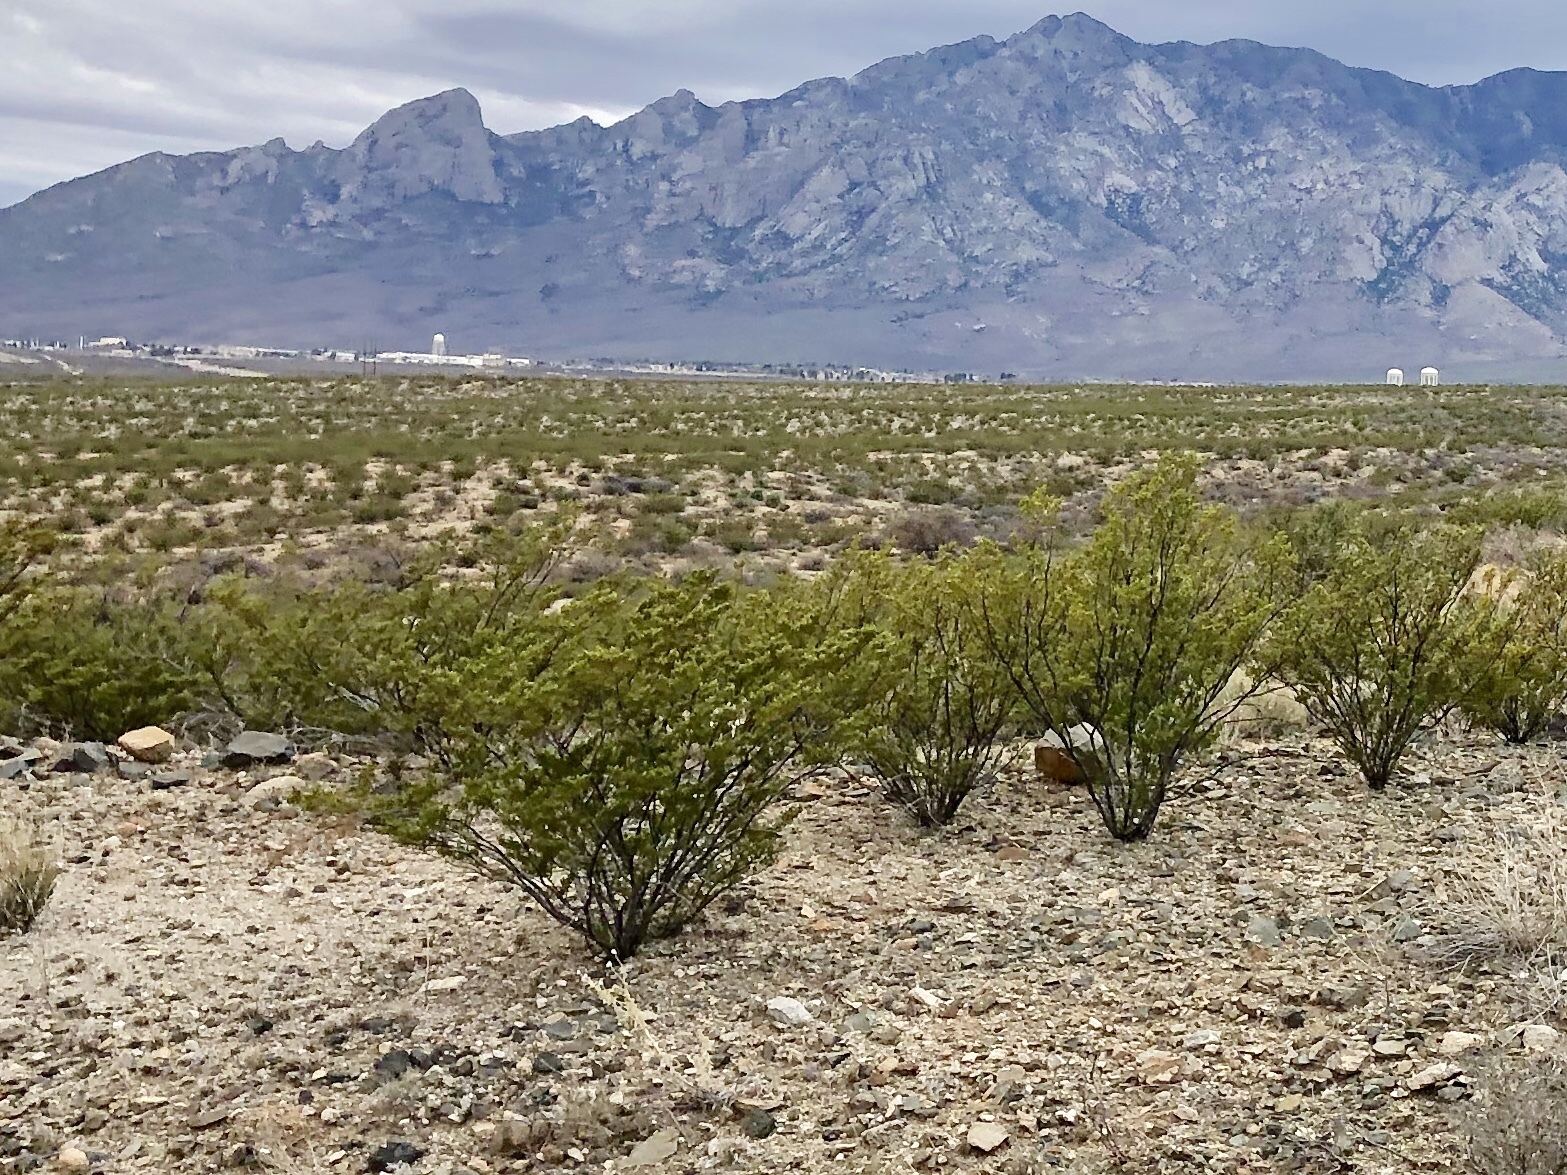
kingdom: Plantae
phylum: Tracheophyta
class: Magnoliopsida
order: Zygophyllales
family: Zygophyllaceae
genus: Larrea
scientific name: Larrea tridentata
